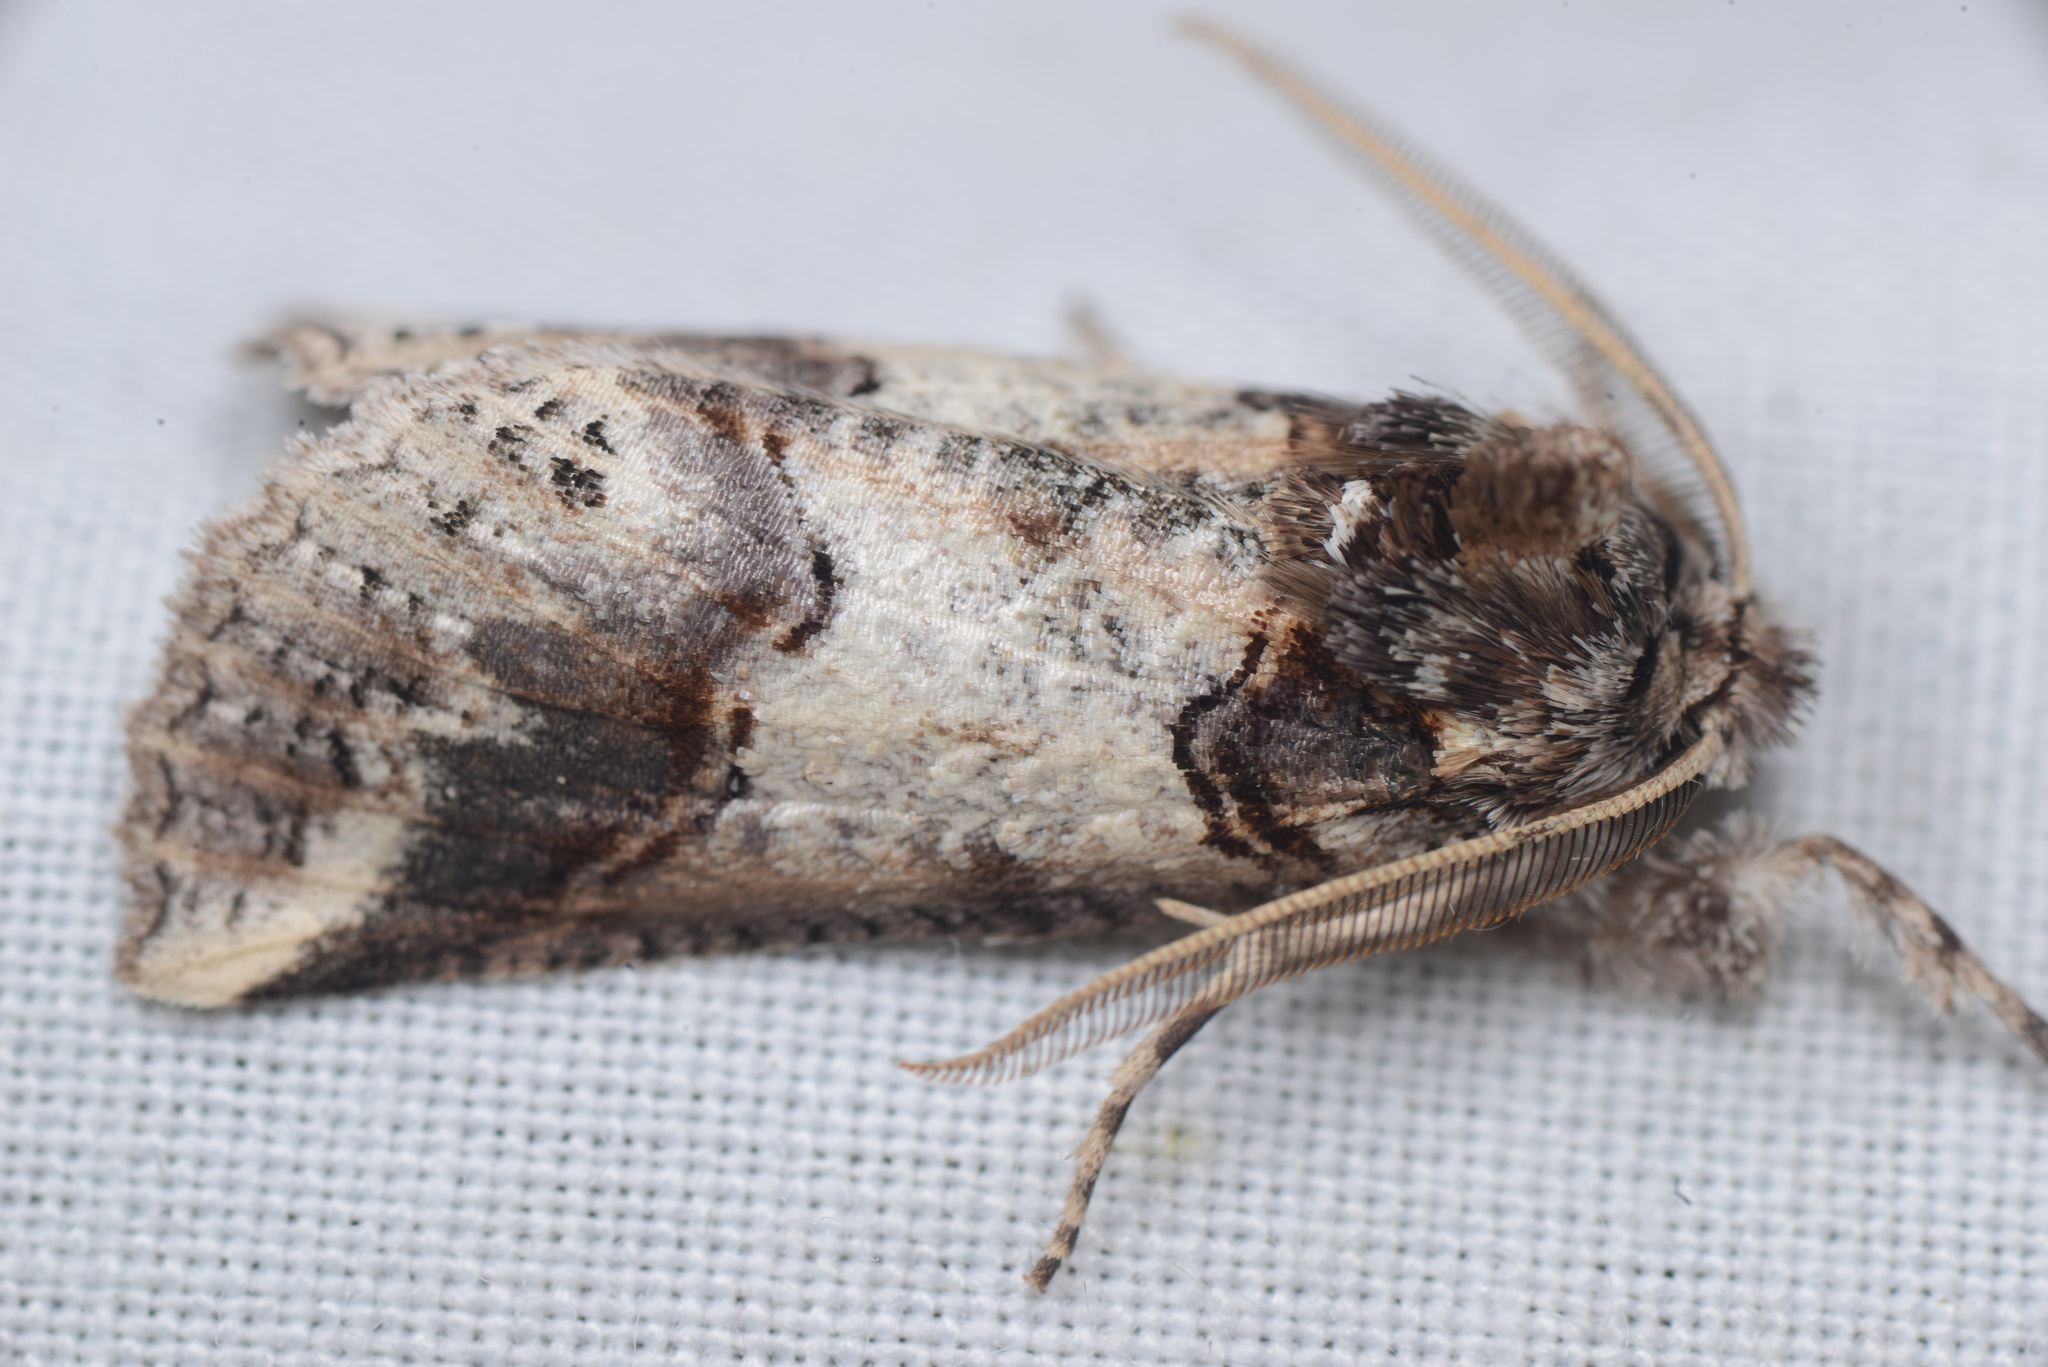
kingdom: Animalia
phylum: Arthropoda
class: Insecta
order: Lepidoptera
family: Geometridae
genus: Declana
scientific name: Declana
